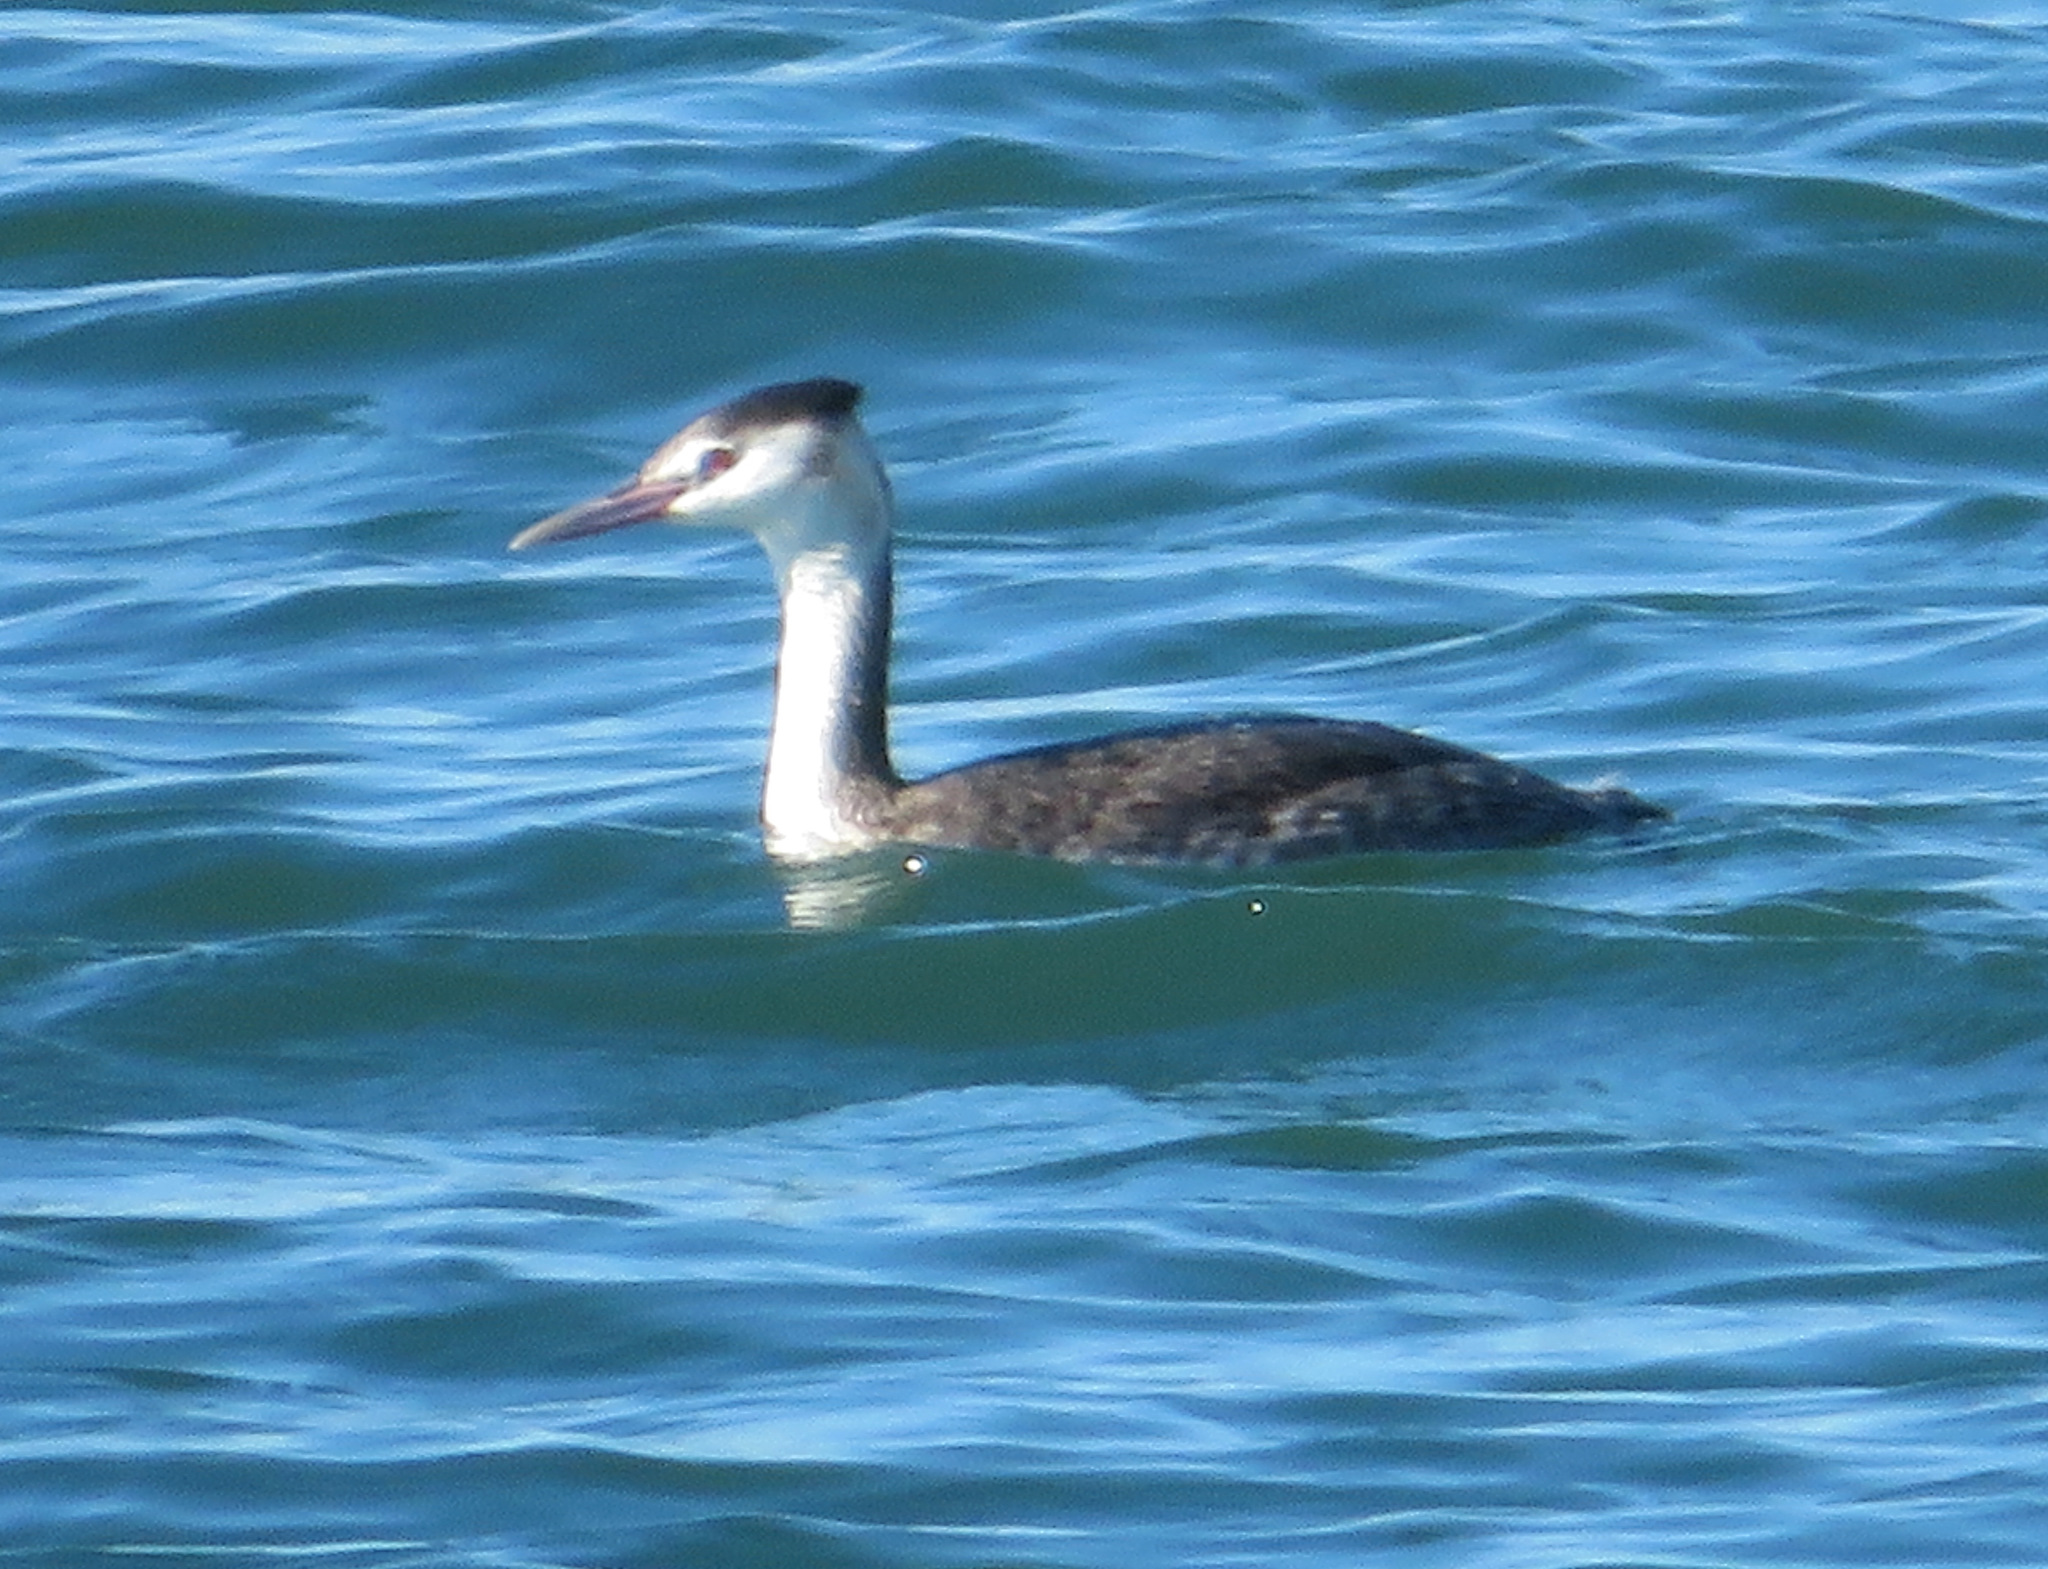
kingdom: Animalia
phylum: Chordata
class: Aves
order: Podicipediformes
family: Podicipedidae
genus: Podiceps
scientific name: Podiceps cristatus
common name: Great crested grebe
